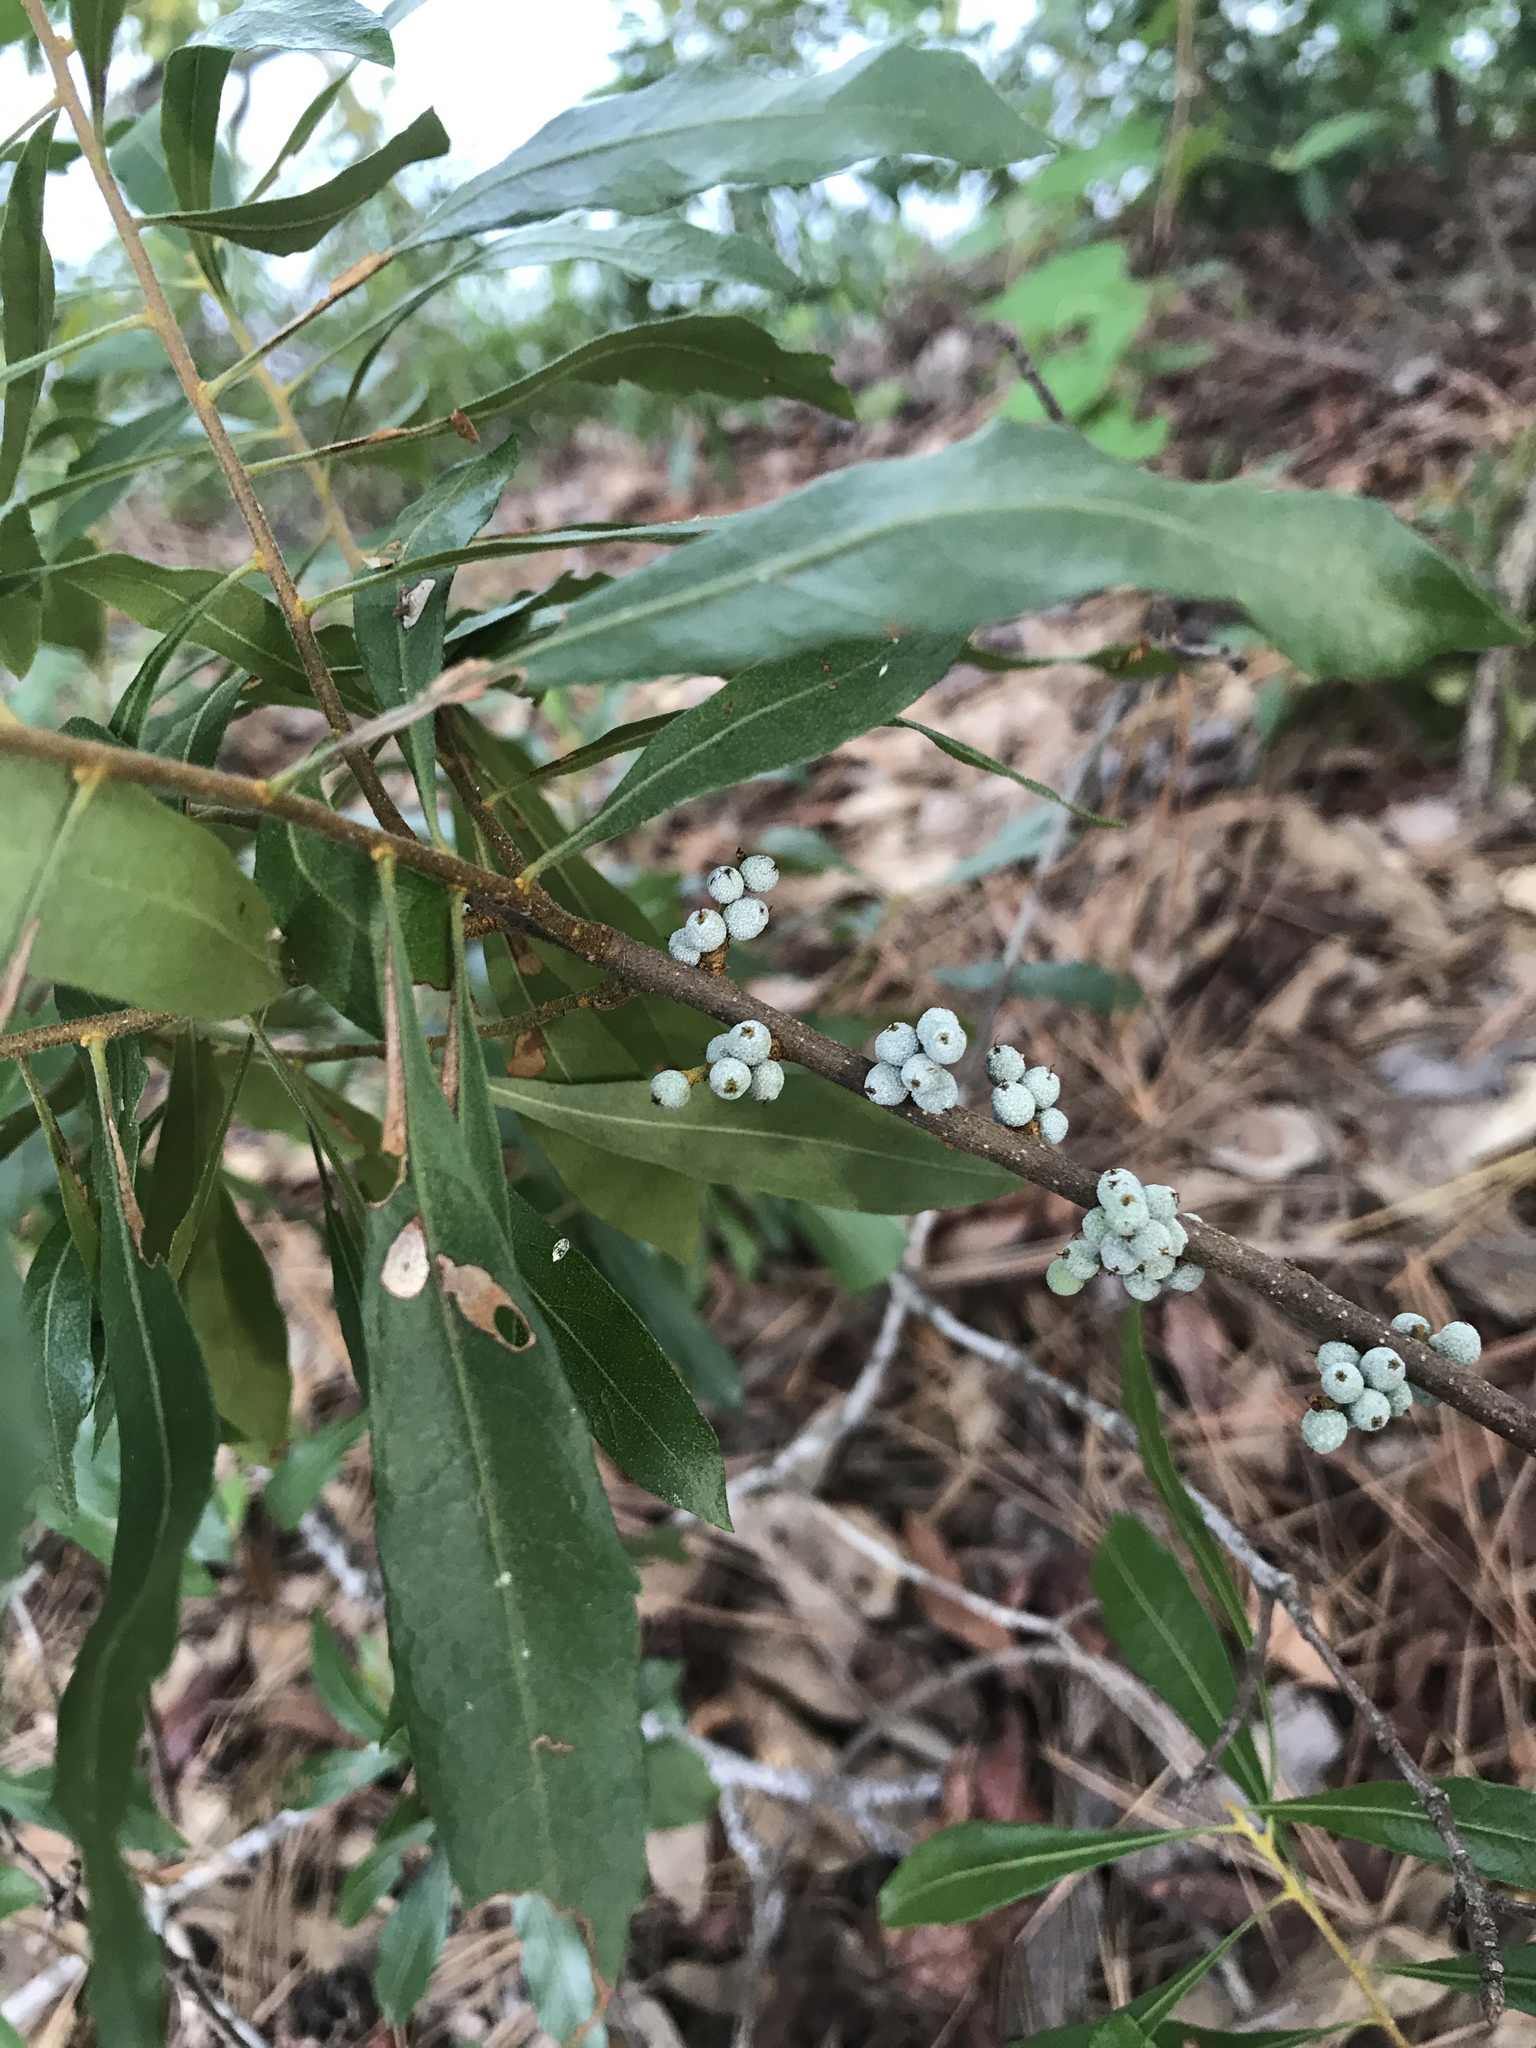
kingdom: Plantae
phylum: Tracheophyta
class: Magnoliopsida
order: Fagales
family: Myricaceae
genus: Morella
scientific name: Morella cerifera
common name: Wax myrtle
